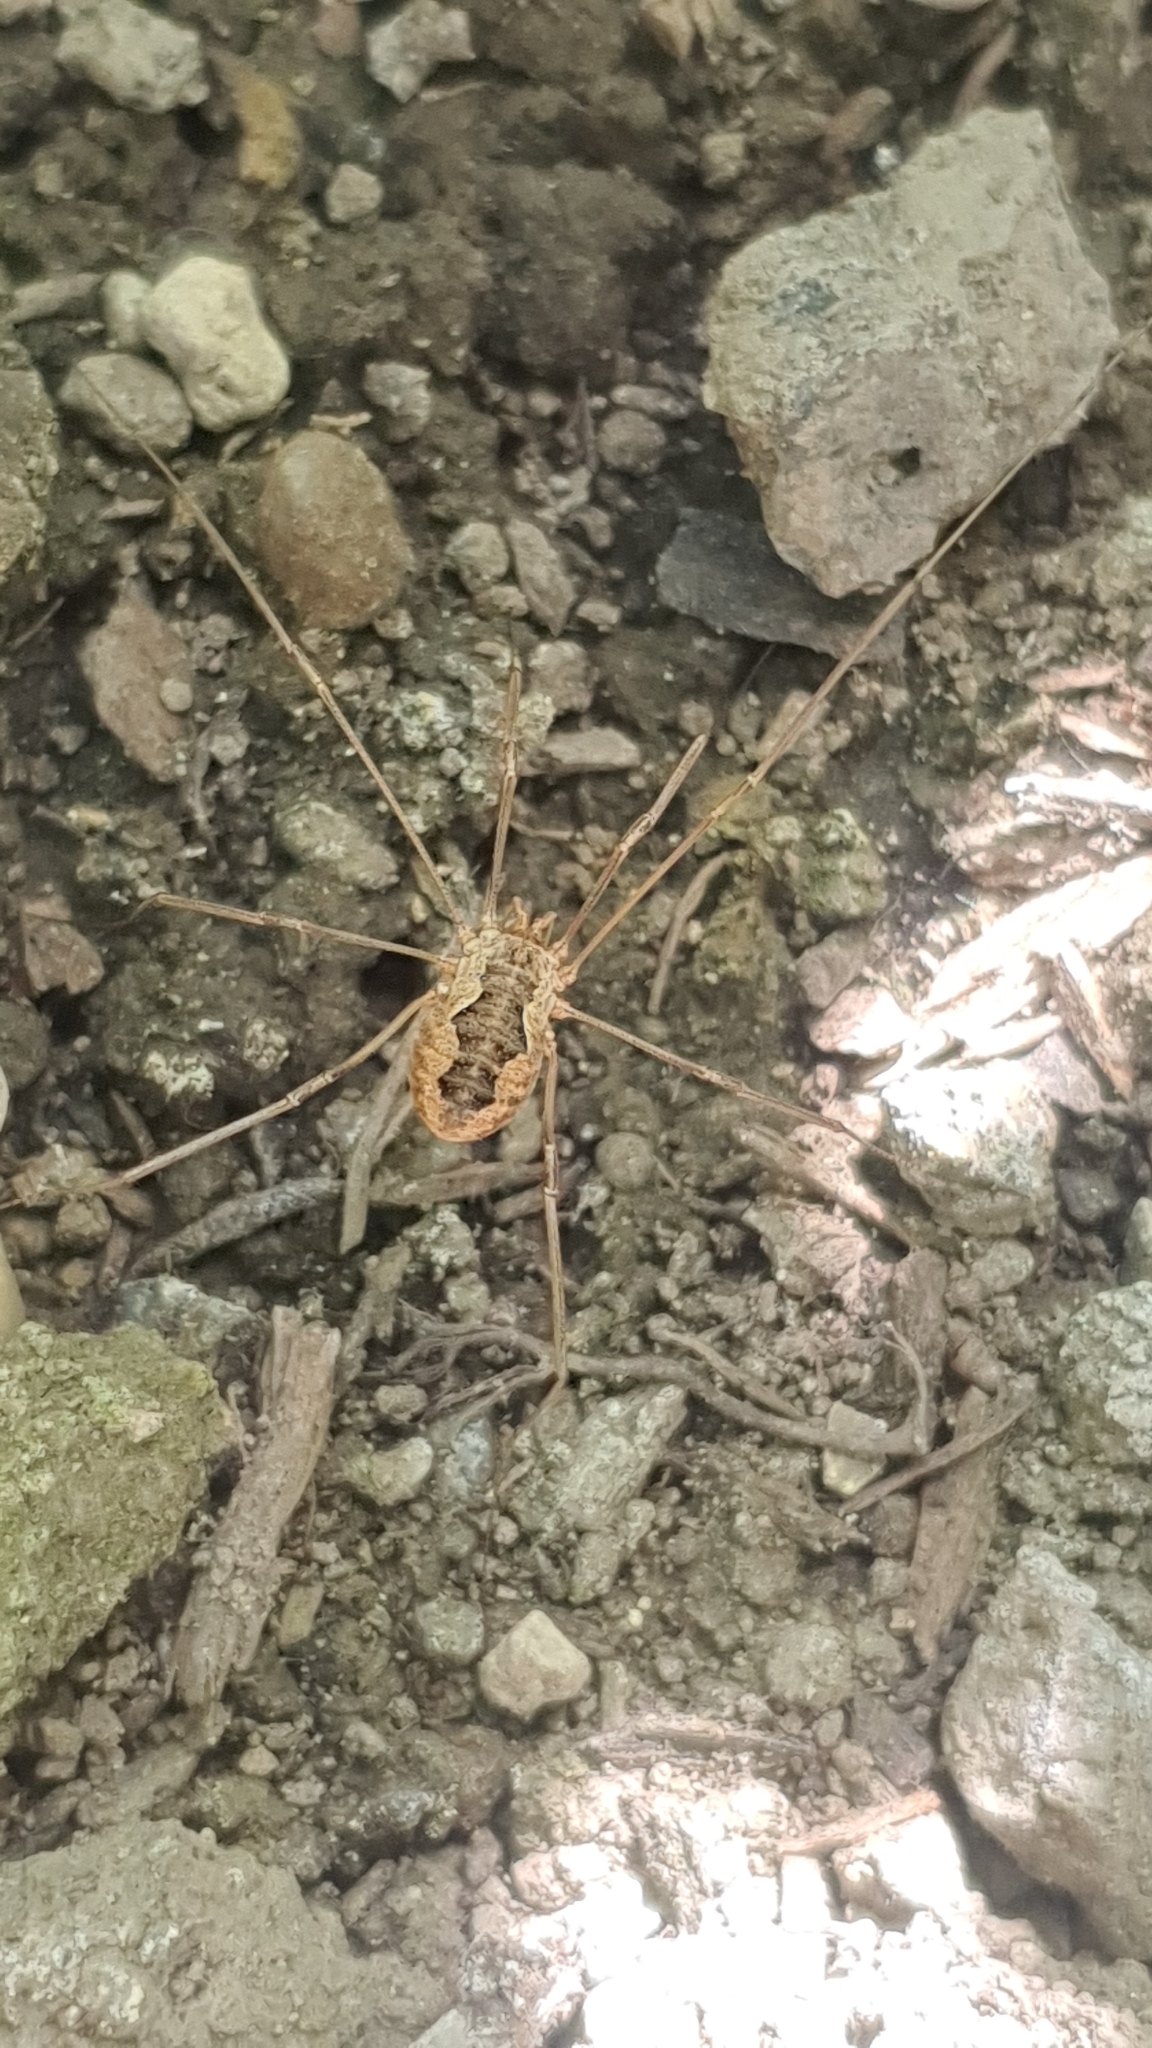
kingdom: Animalia
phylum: Arthropoda
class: Arachnida
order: Opiliones
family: Phalangiidae
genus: Phalangium
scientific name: Phalangium opilio
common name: Daddy longleg
